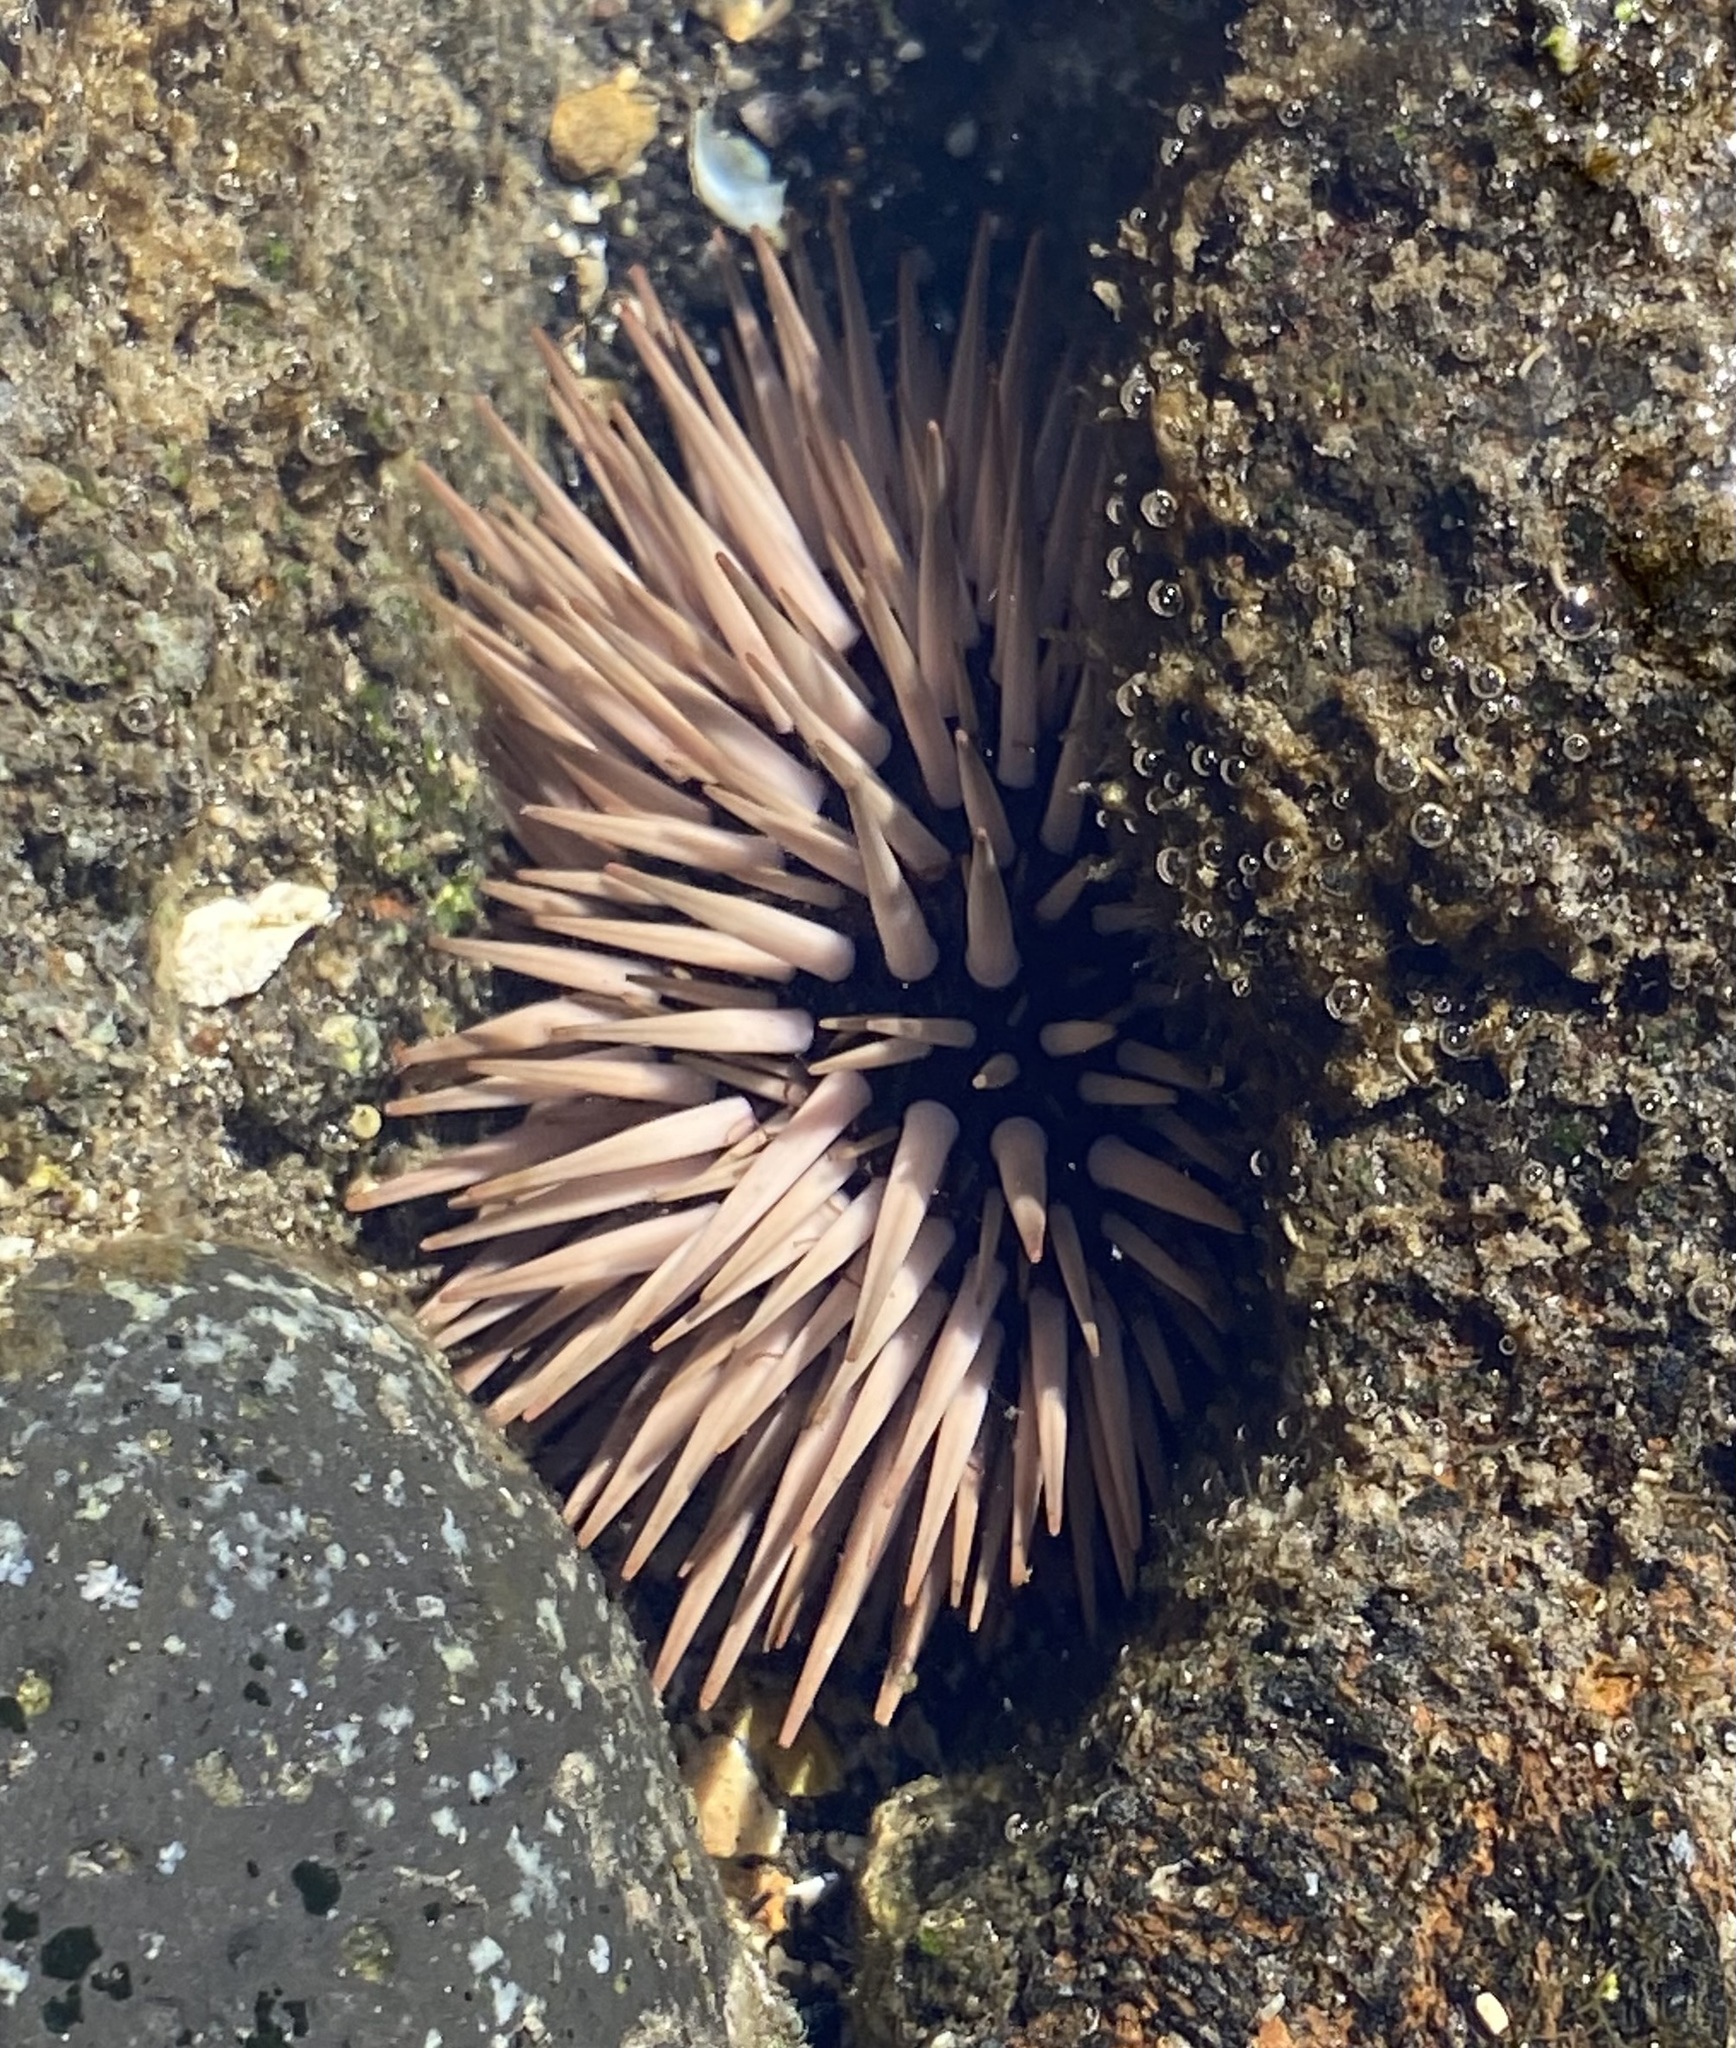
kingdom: Animalia
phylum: Echinodermata
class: Echinoidea
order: Camarodonta
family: Echinometridae
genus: Echinometra
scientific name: Echinometra mathaei
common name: Rock-boring urchin
